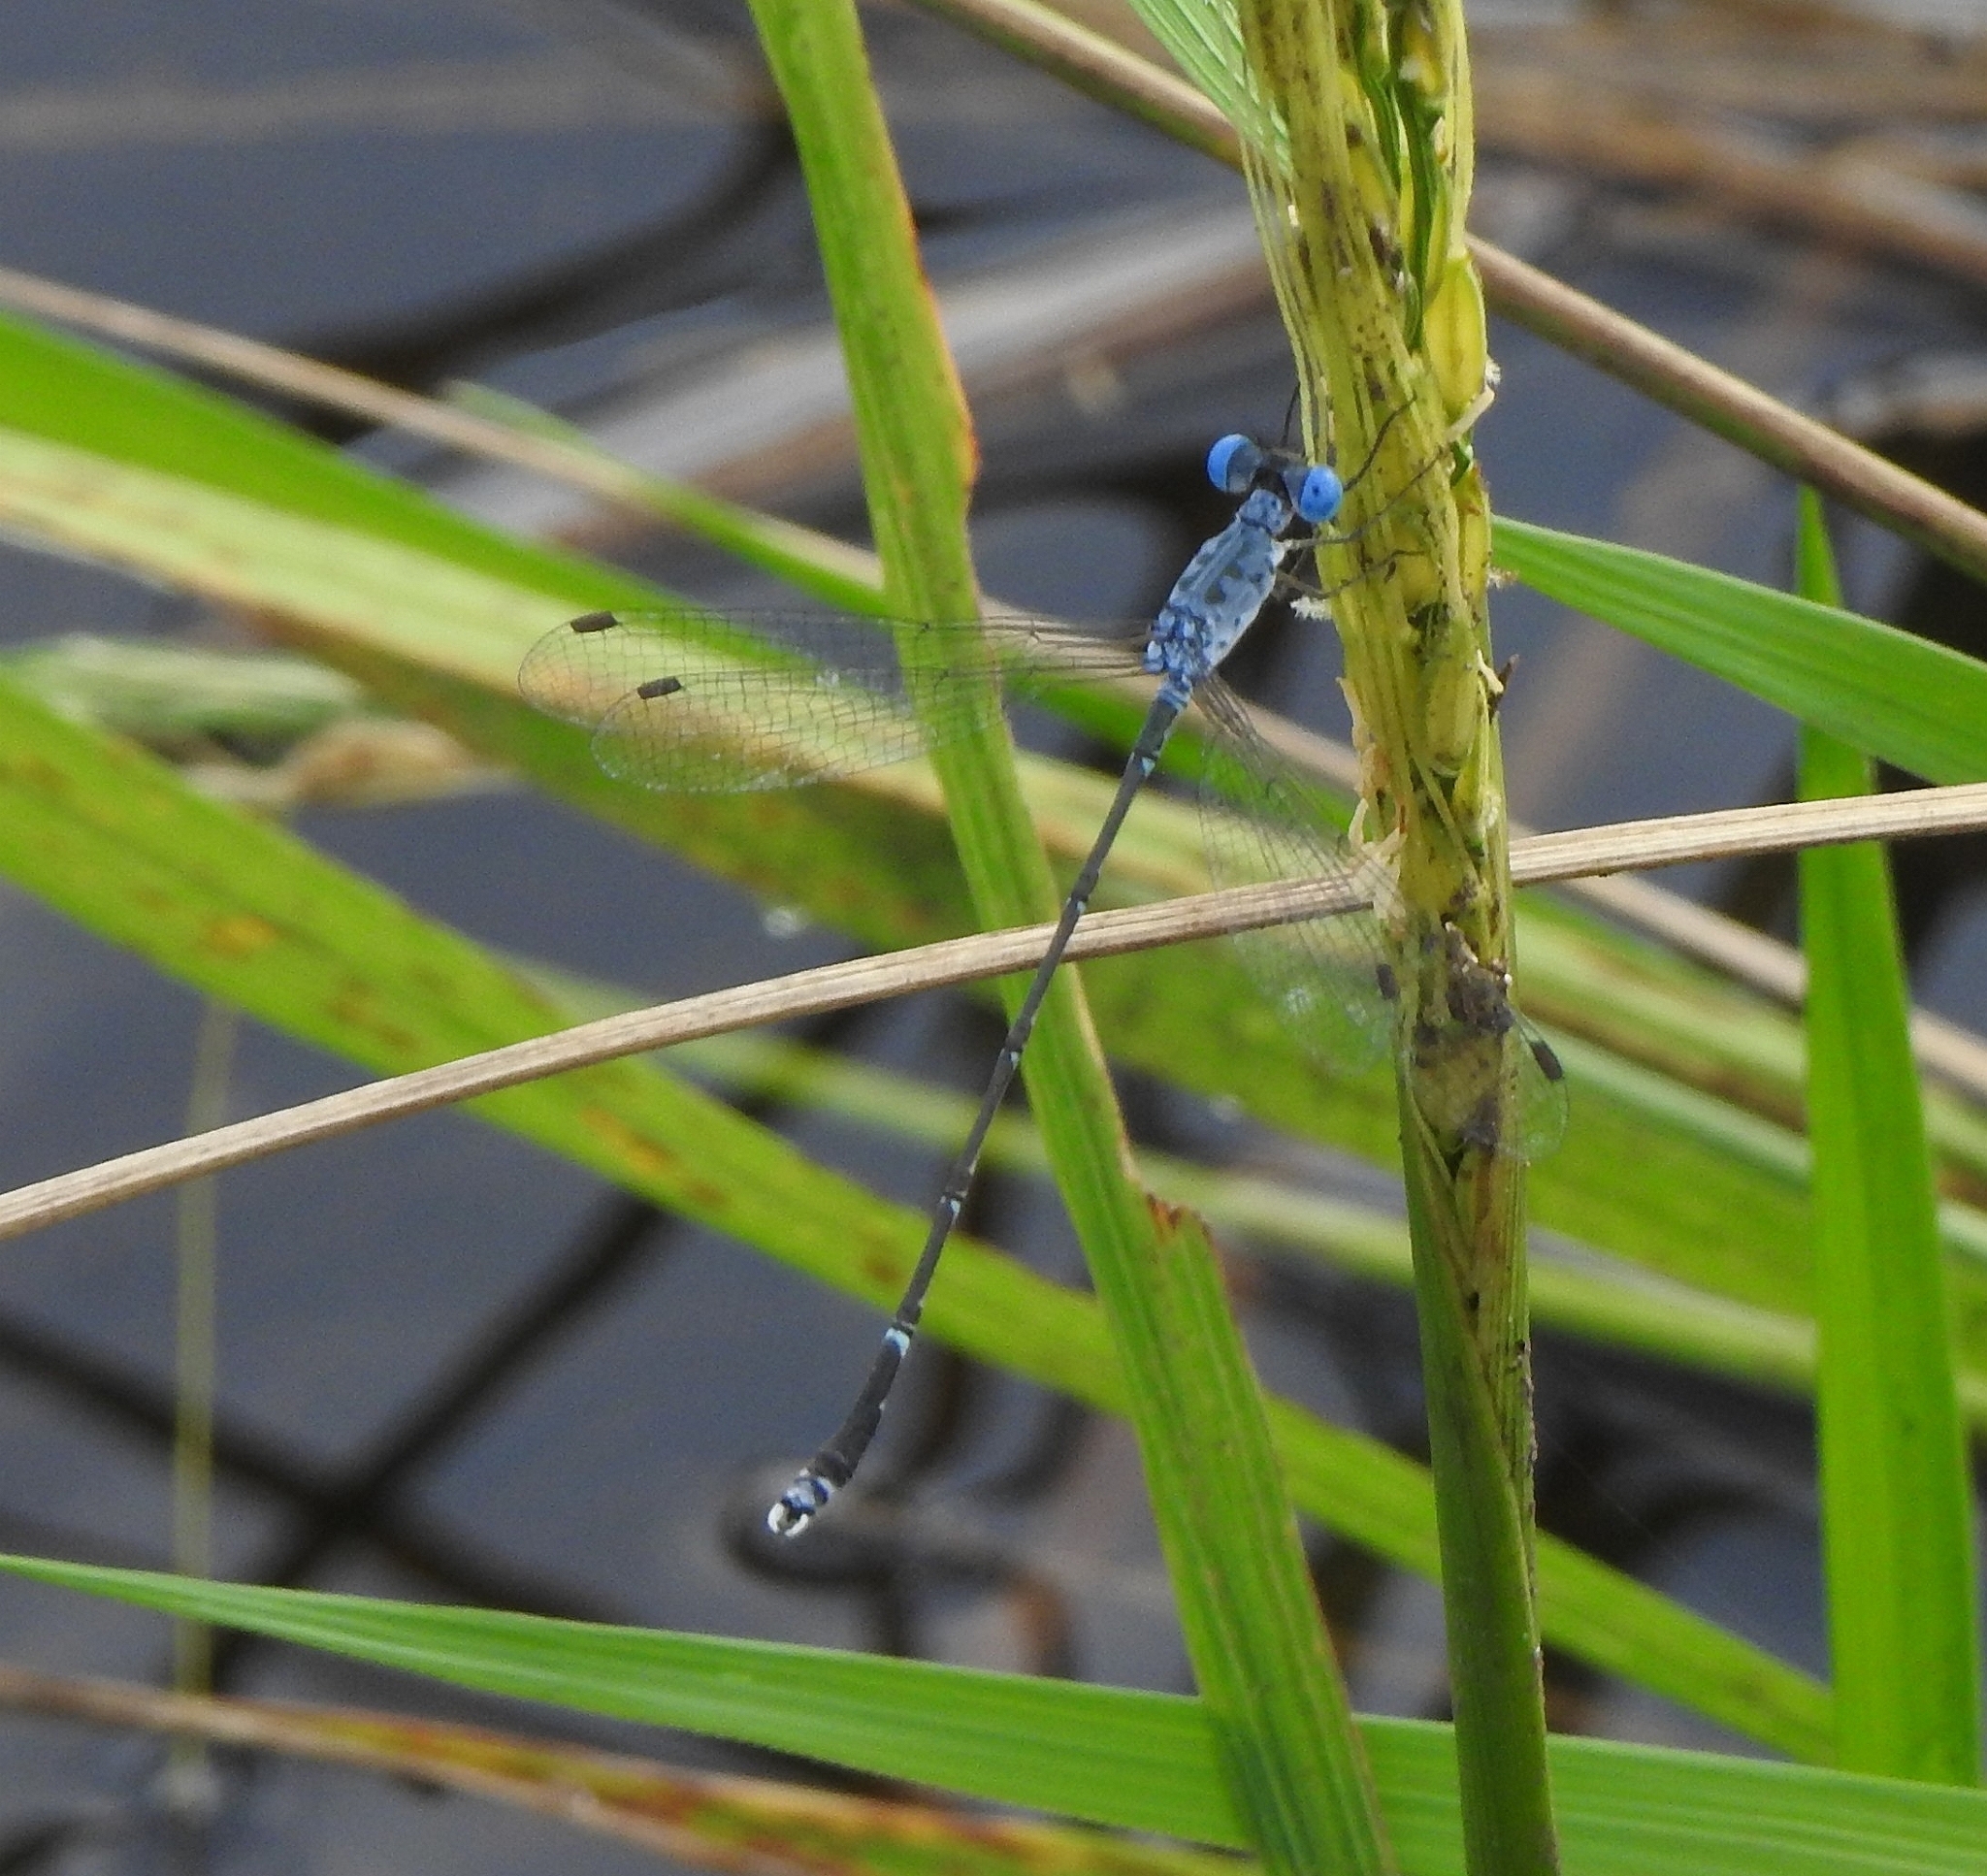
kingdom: Animalia
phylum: Arthropoda
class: Insecta
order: Odonata
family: Lestidae
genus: Lestes
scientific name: Lestes praemorsus
